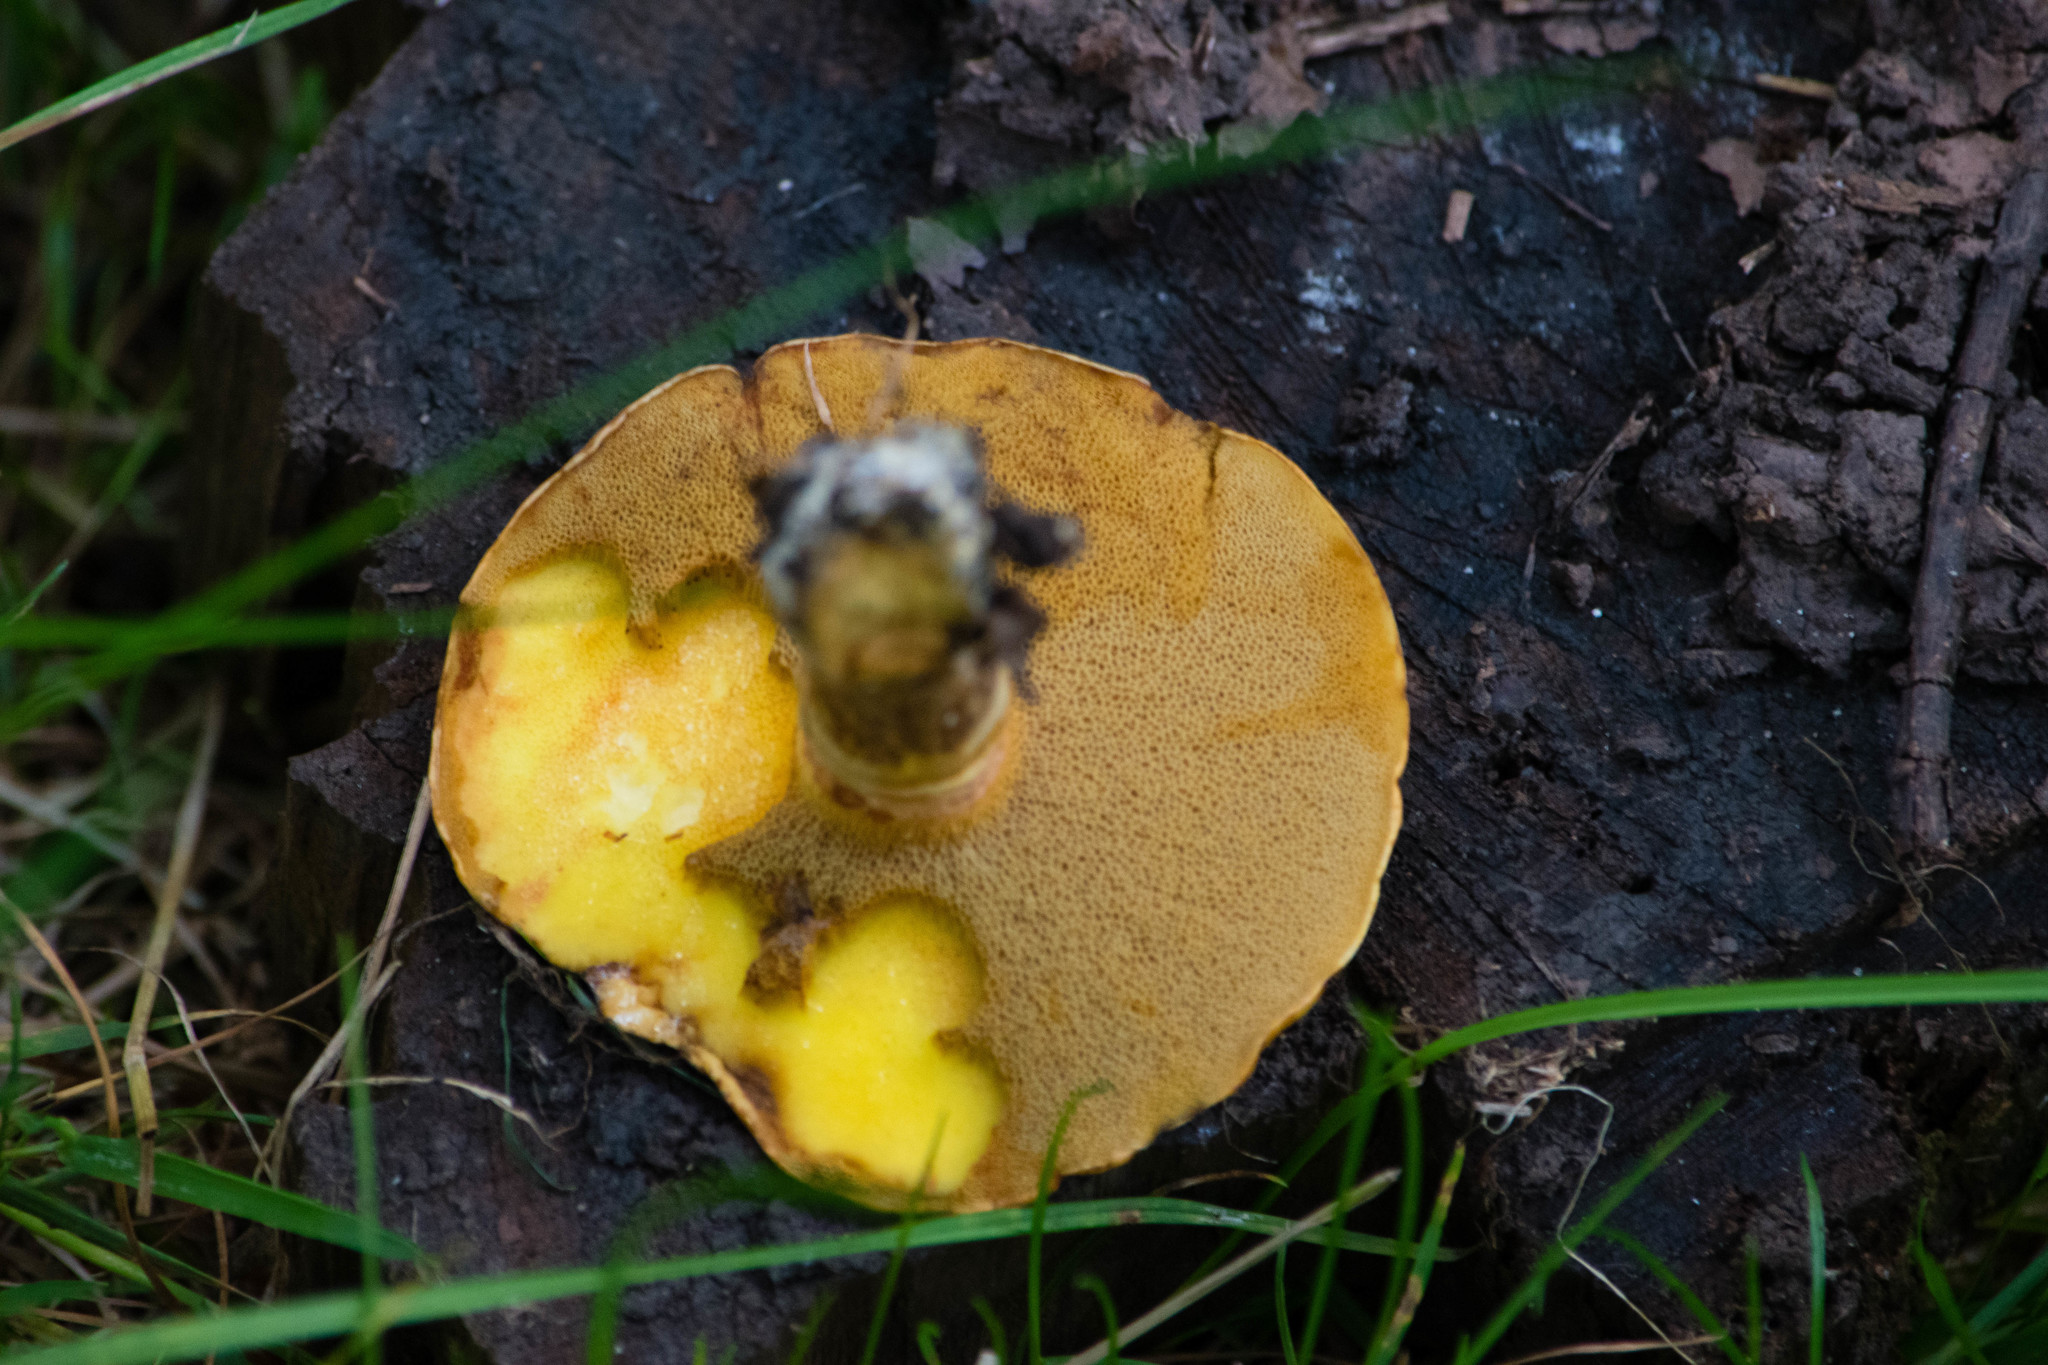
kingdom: Fungi
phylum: Basidiomycota
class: Agaricomycetes
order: Boletales
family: Suillaceae
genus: Suillus
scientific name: Suillus grevillei
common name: Larch bolete
